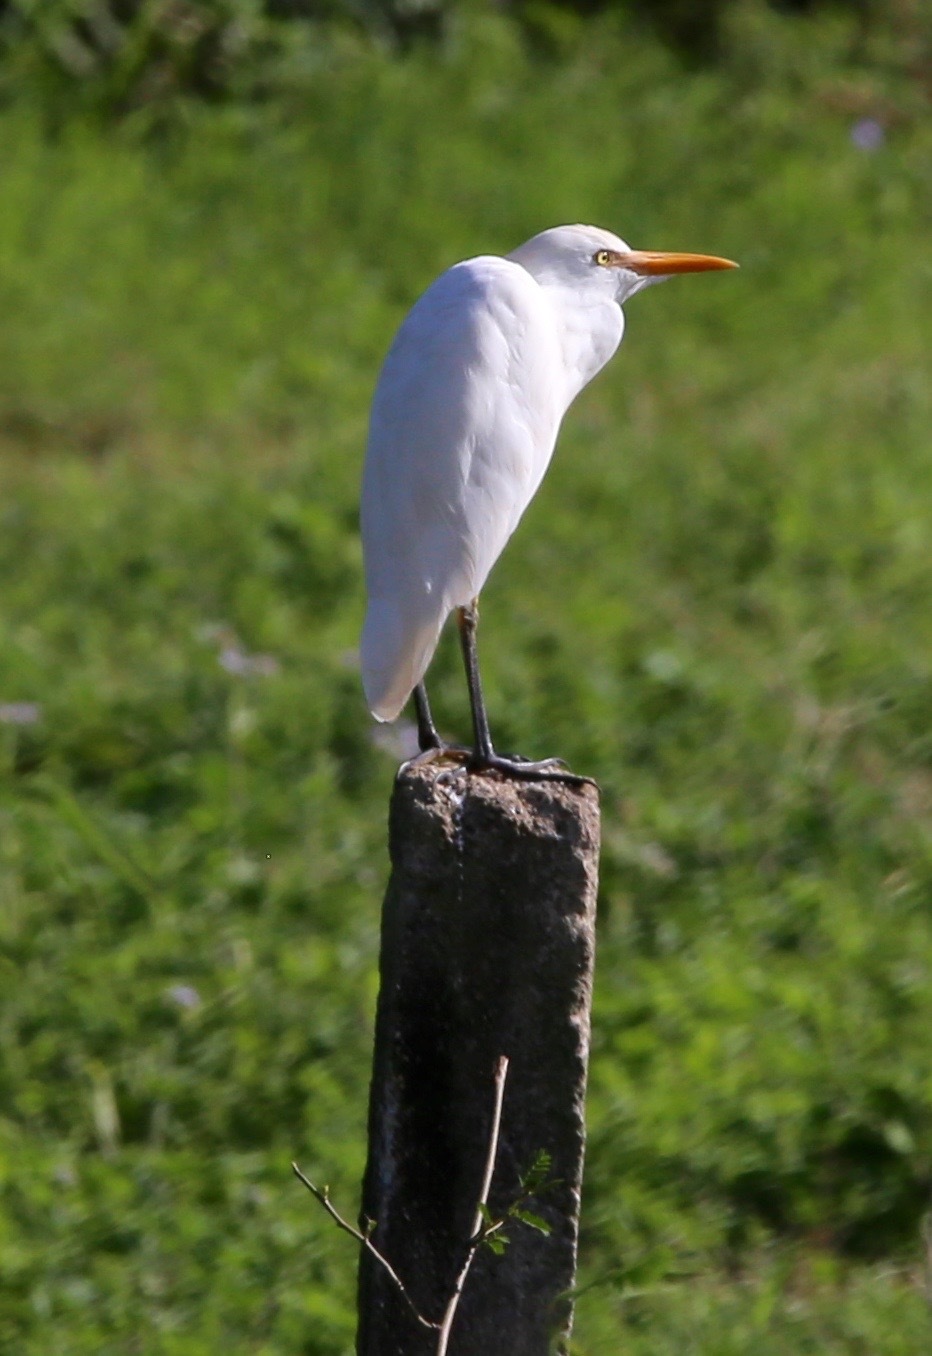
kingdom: Animalia
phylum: Chordata
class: Aves
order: Pelecaniformes
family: Ardeidae
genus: Bubulcus
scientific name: Bubulcus ibis
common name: Cattle egret
